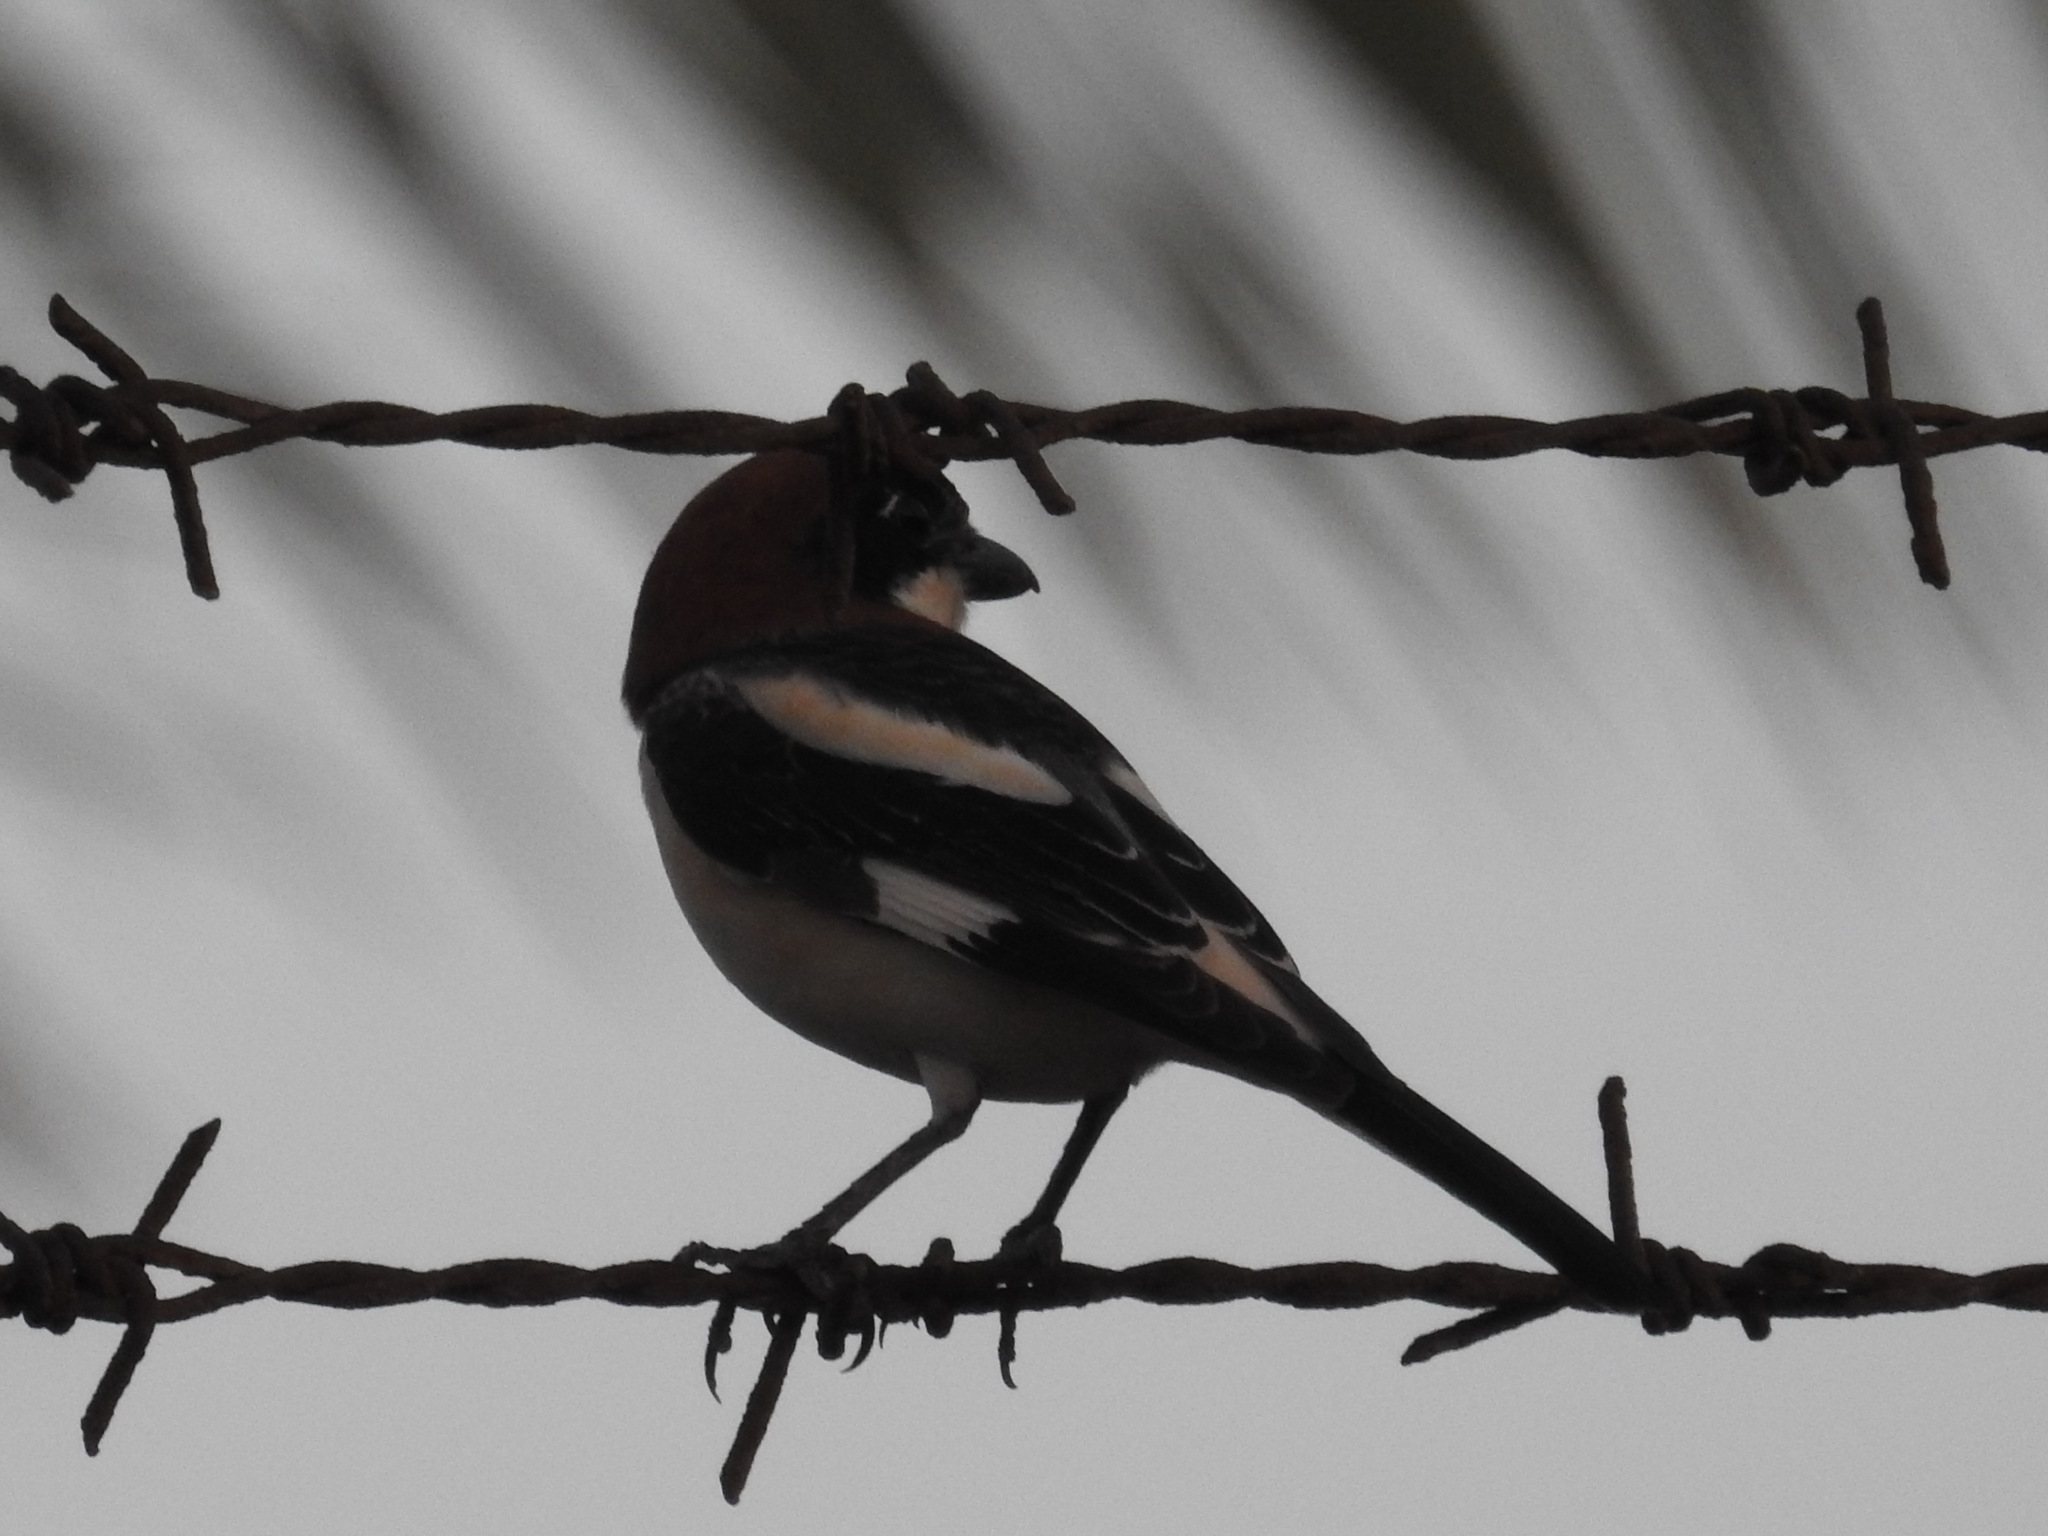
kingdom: Animalia
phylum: Chordata
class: Aves
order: Passeriformes
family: Laniidae
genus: Lanius
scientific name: Lanius senator
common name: Woodchat shrike
